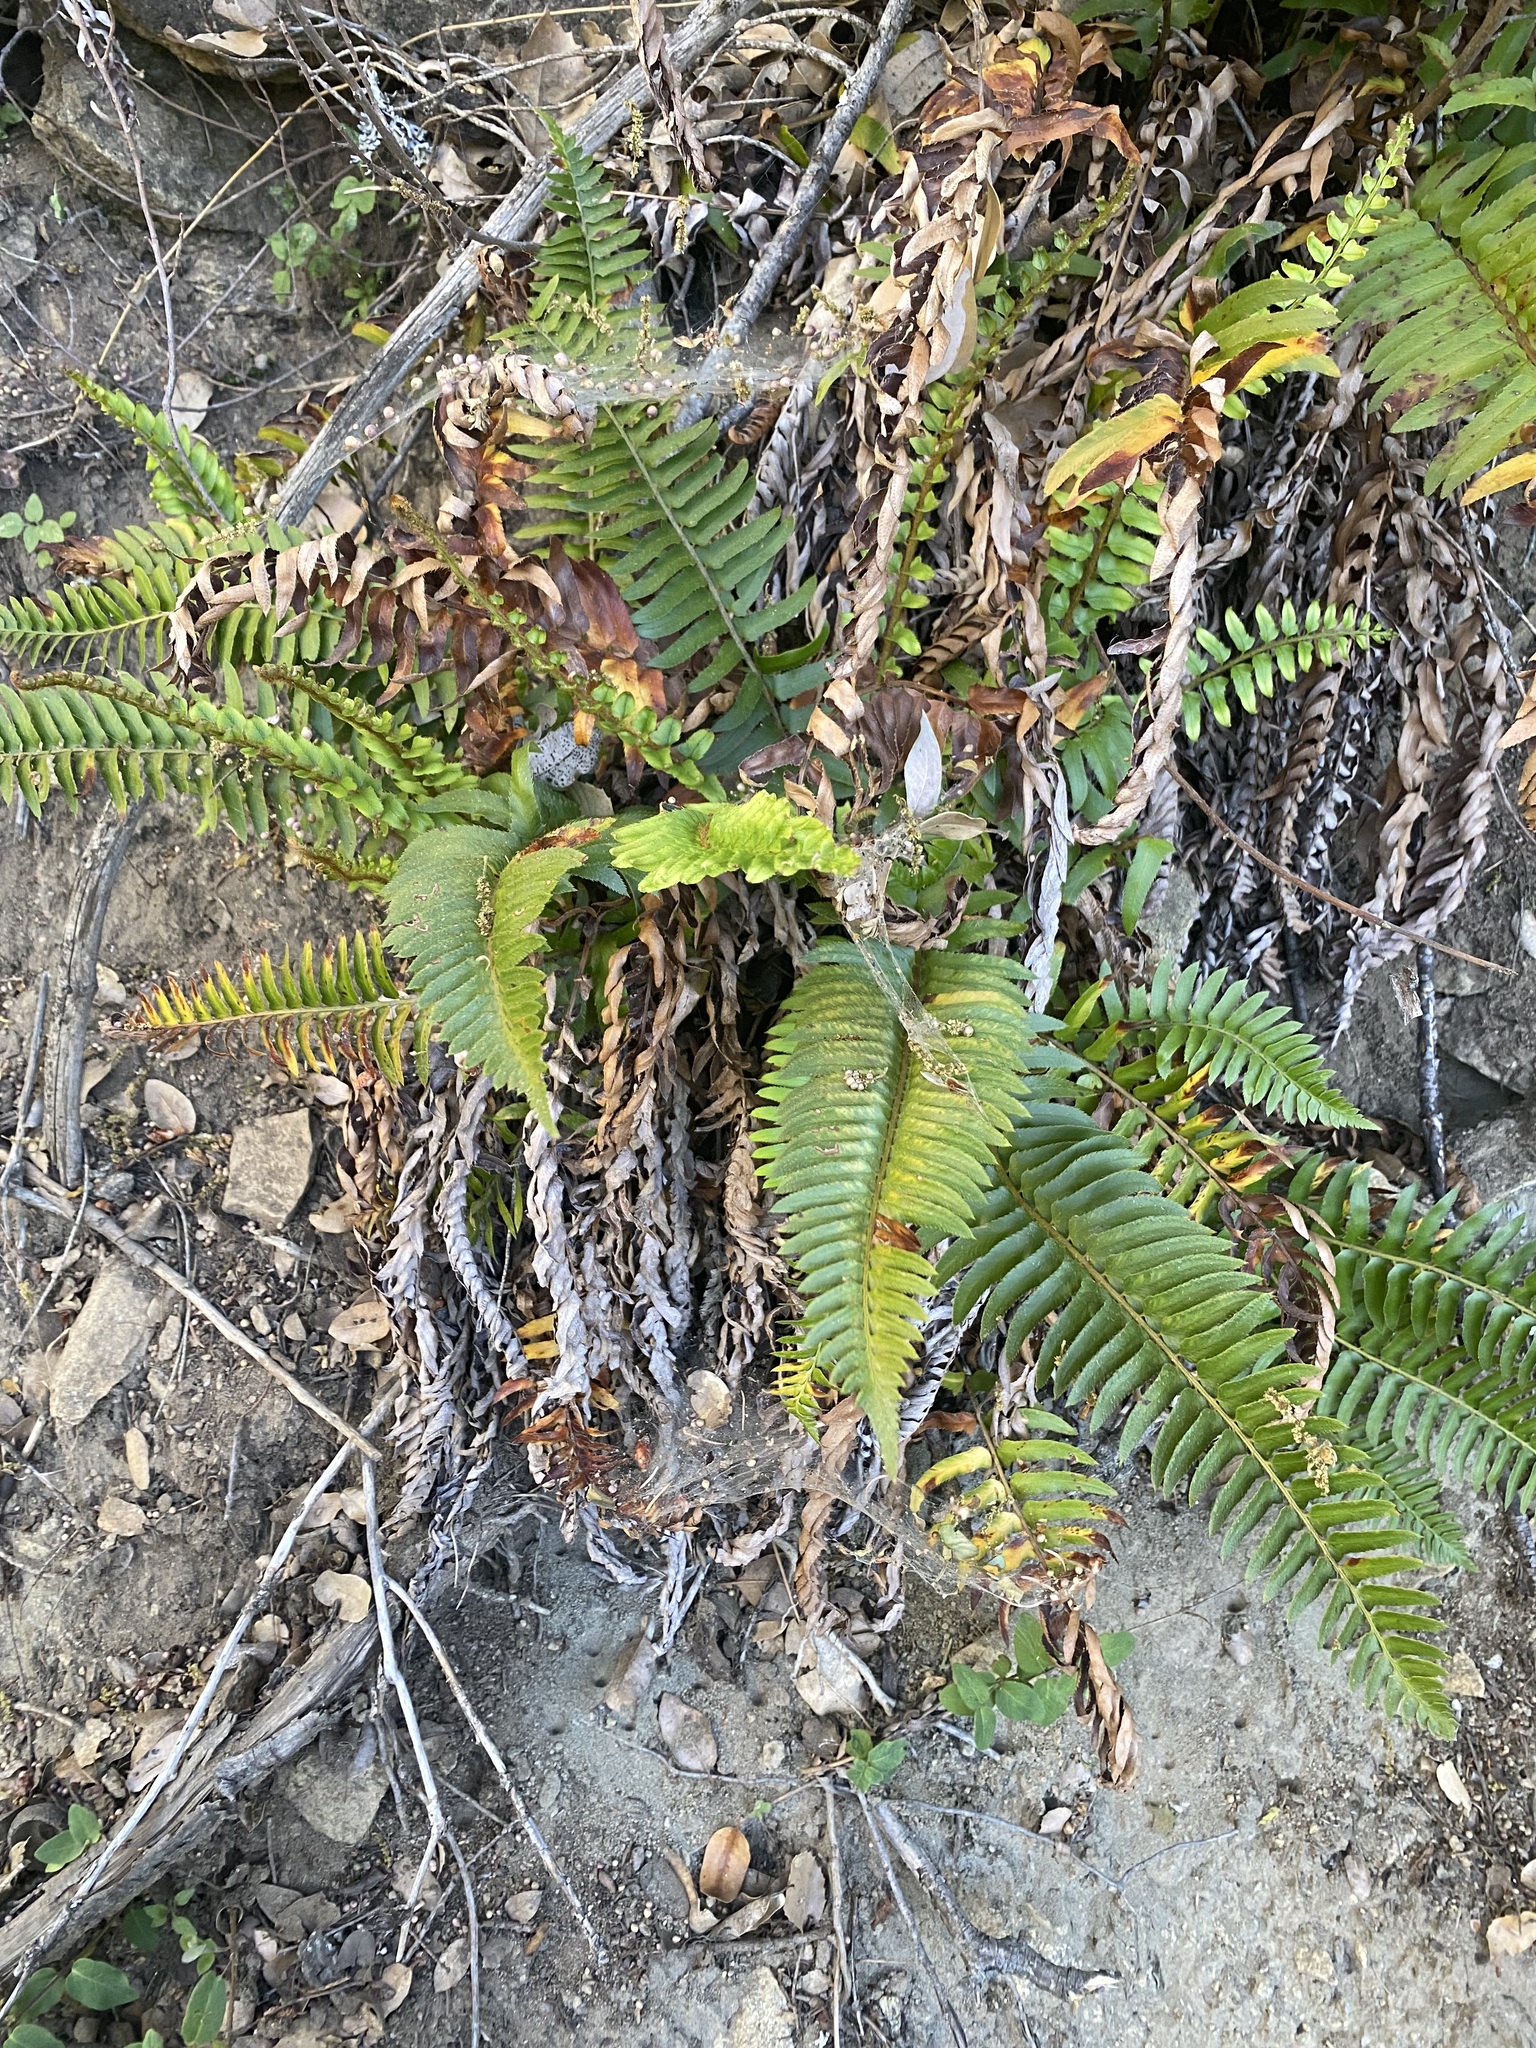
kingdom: Plantae
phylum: Tracheophyta
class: Polypodiopsida
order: Polypodiales
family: Dryopteridaceae
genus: Polystichum
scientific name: Polystichum imbricans
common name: Dwarf western sword fern
